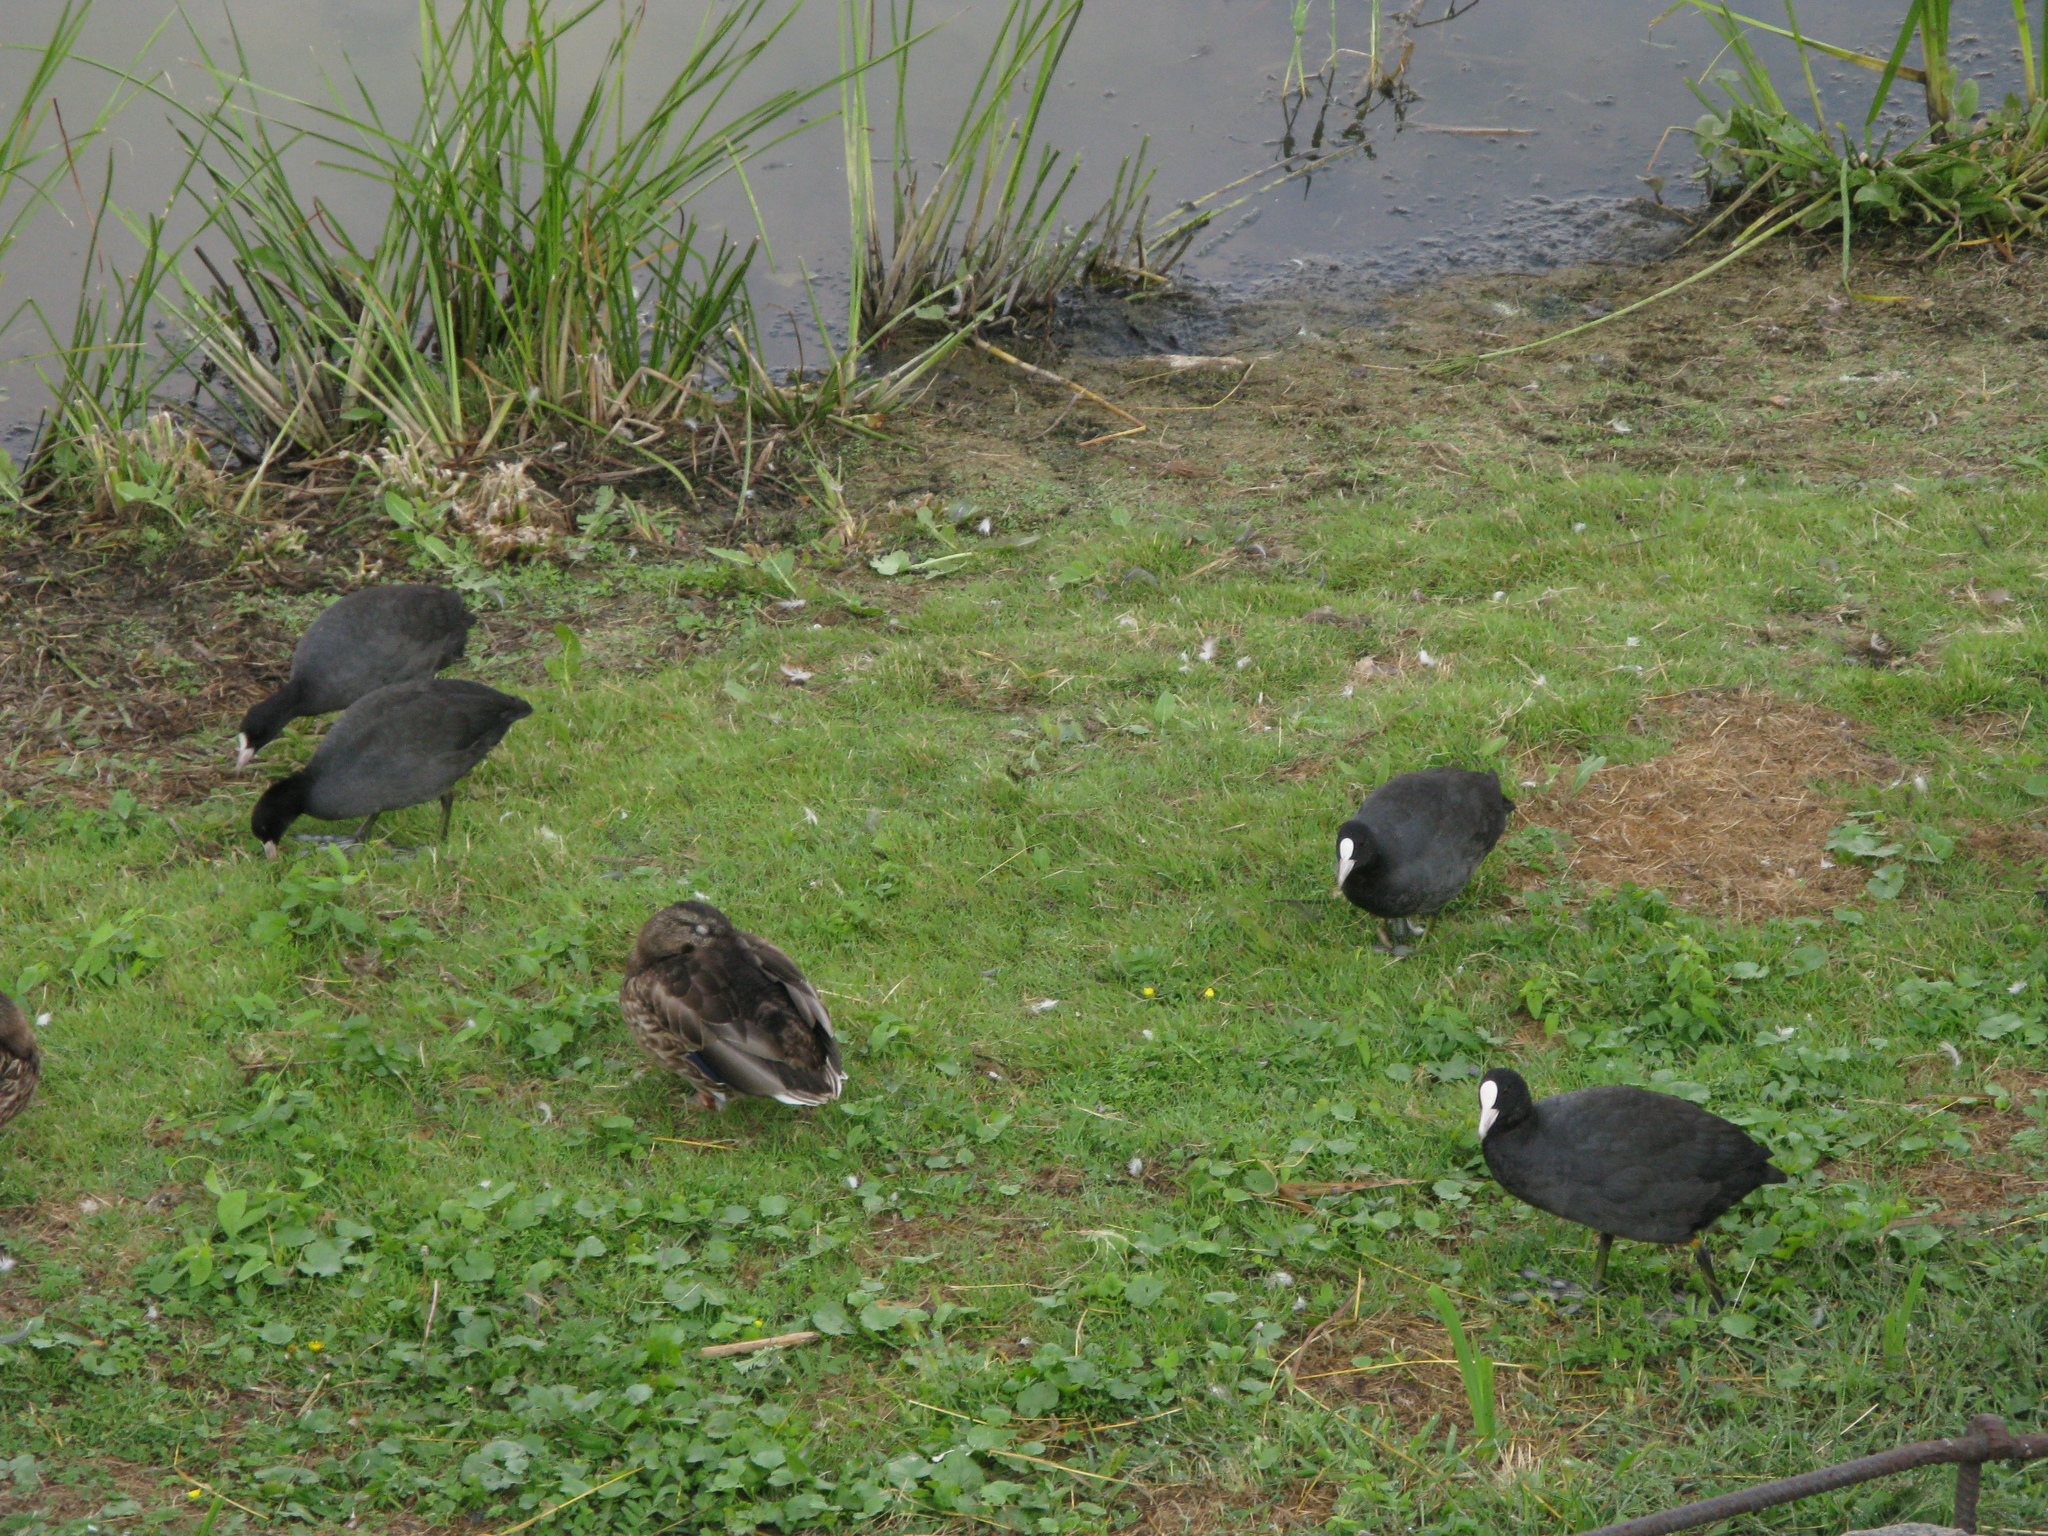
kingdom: Animalia
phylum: Chordata
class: Aves
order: Gruiformes
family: Rallidae
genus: Fulica
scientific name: Fulica atra
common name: Eurasian coot
